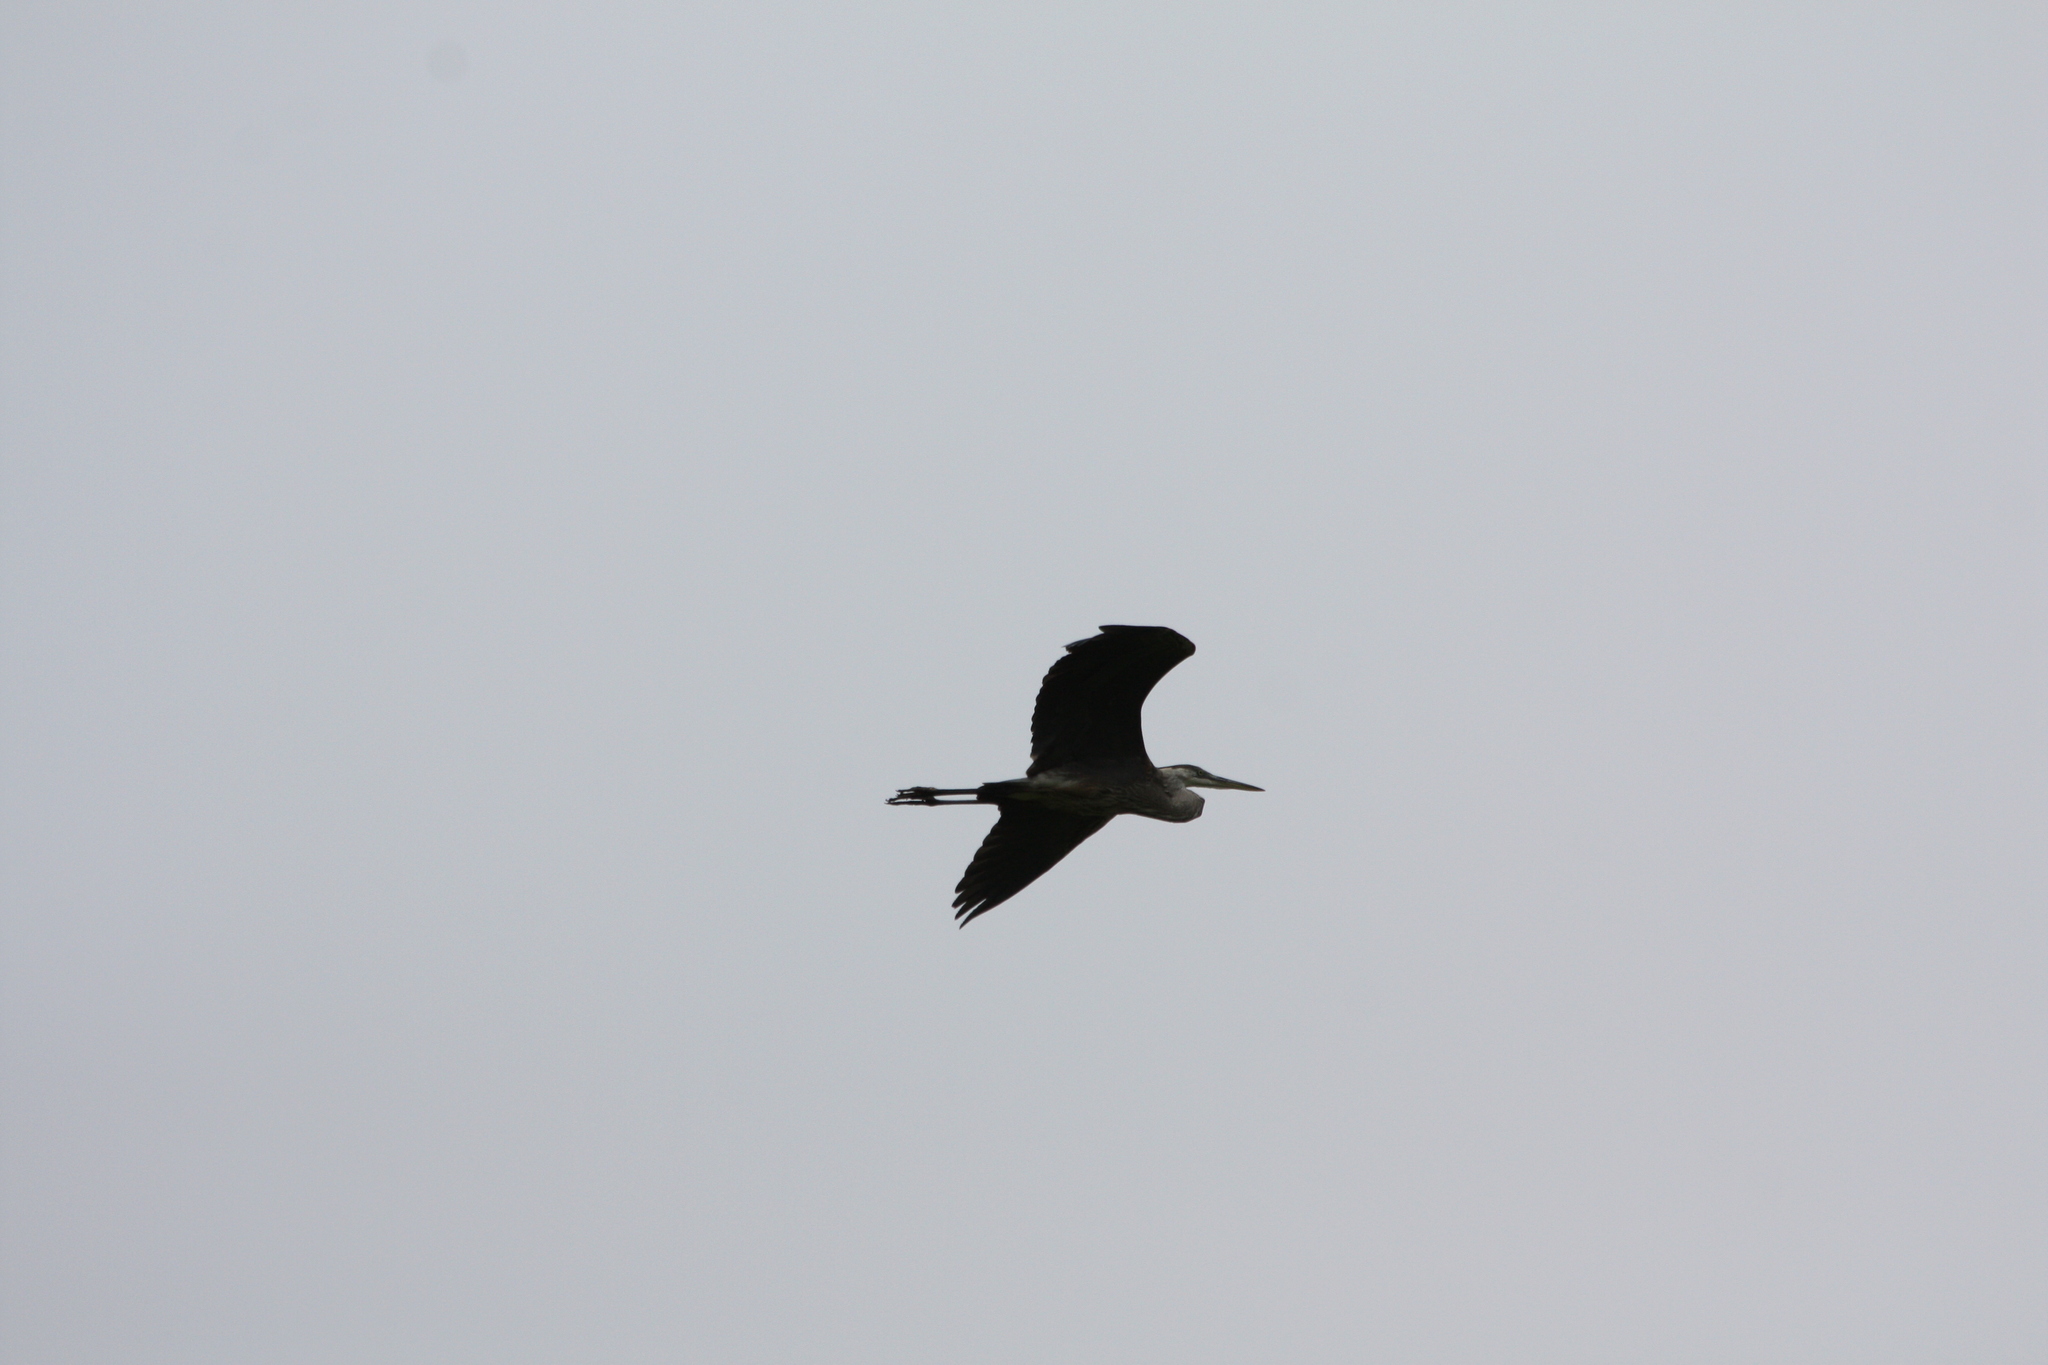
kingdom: Animalia
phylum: Chordata
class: Aves
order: Pelecaniformes
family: Ardeidae
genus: Ardea
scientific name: Ardea herodias
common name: Great blue heron
